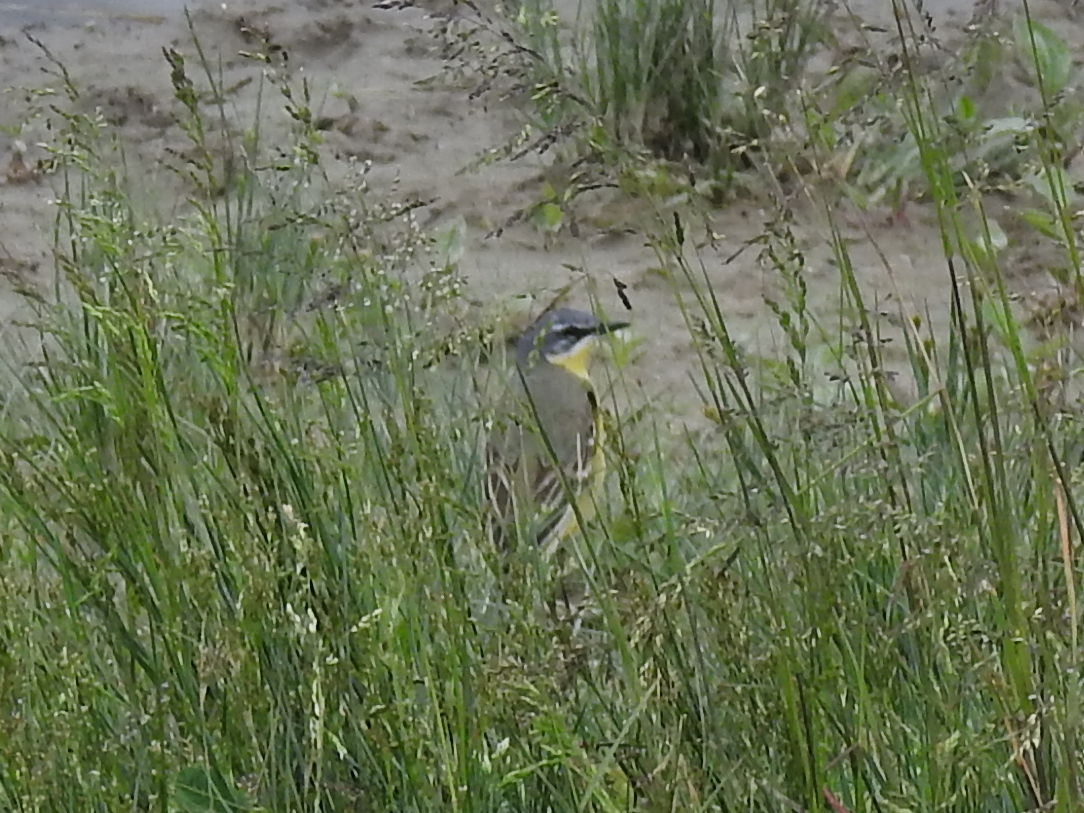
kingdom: Animalia
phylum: Chordata
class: Aves
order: Passeriformes
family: Motacillidae
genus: Motacilla
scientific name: Motacilla flava
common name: Western yellow wagtail
